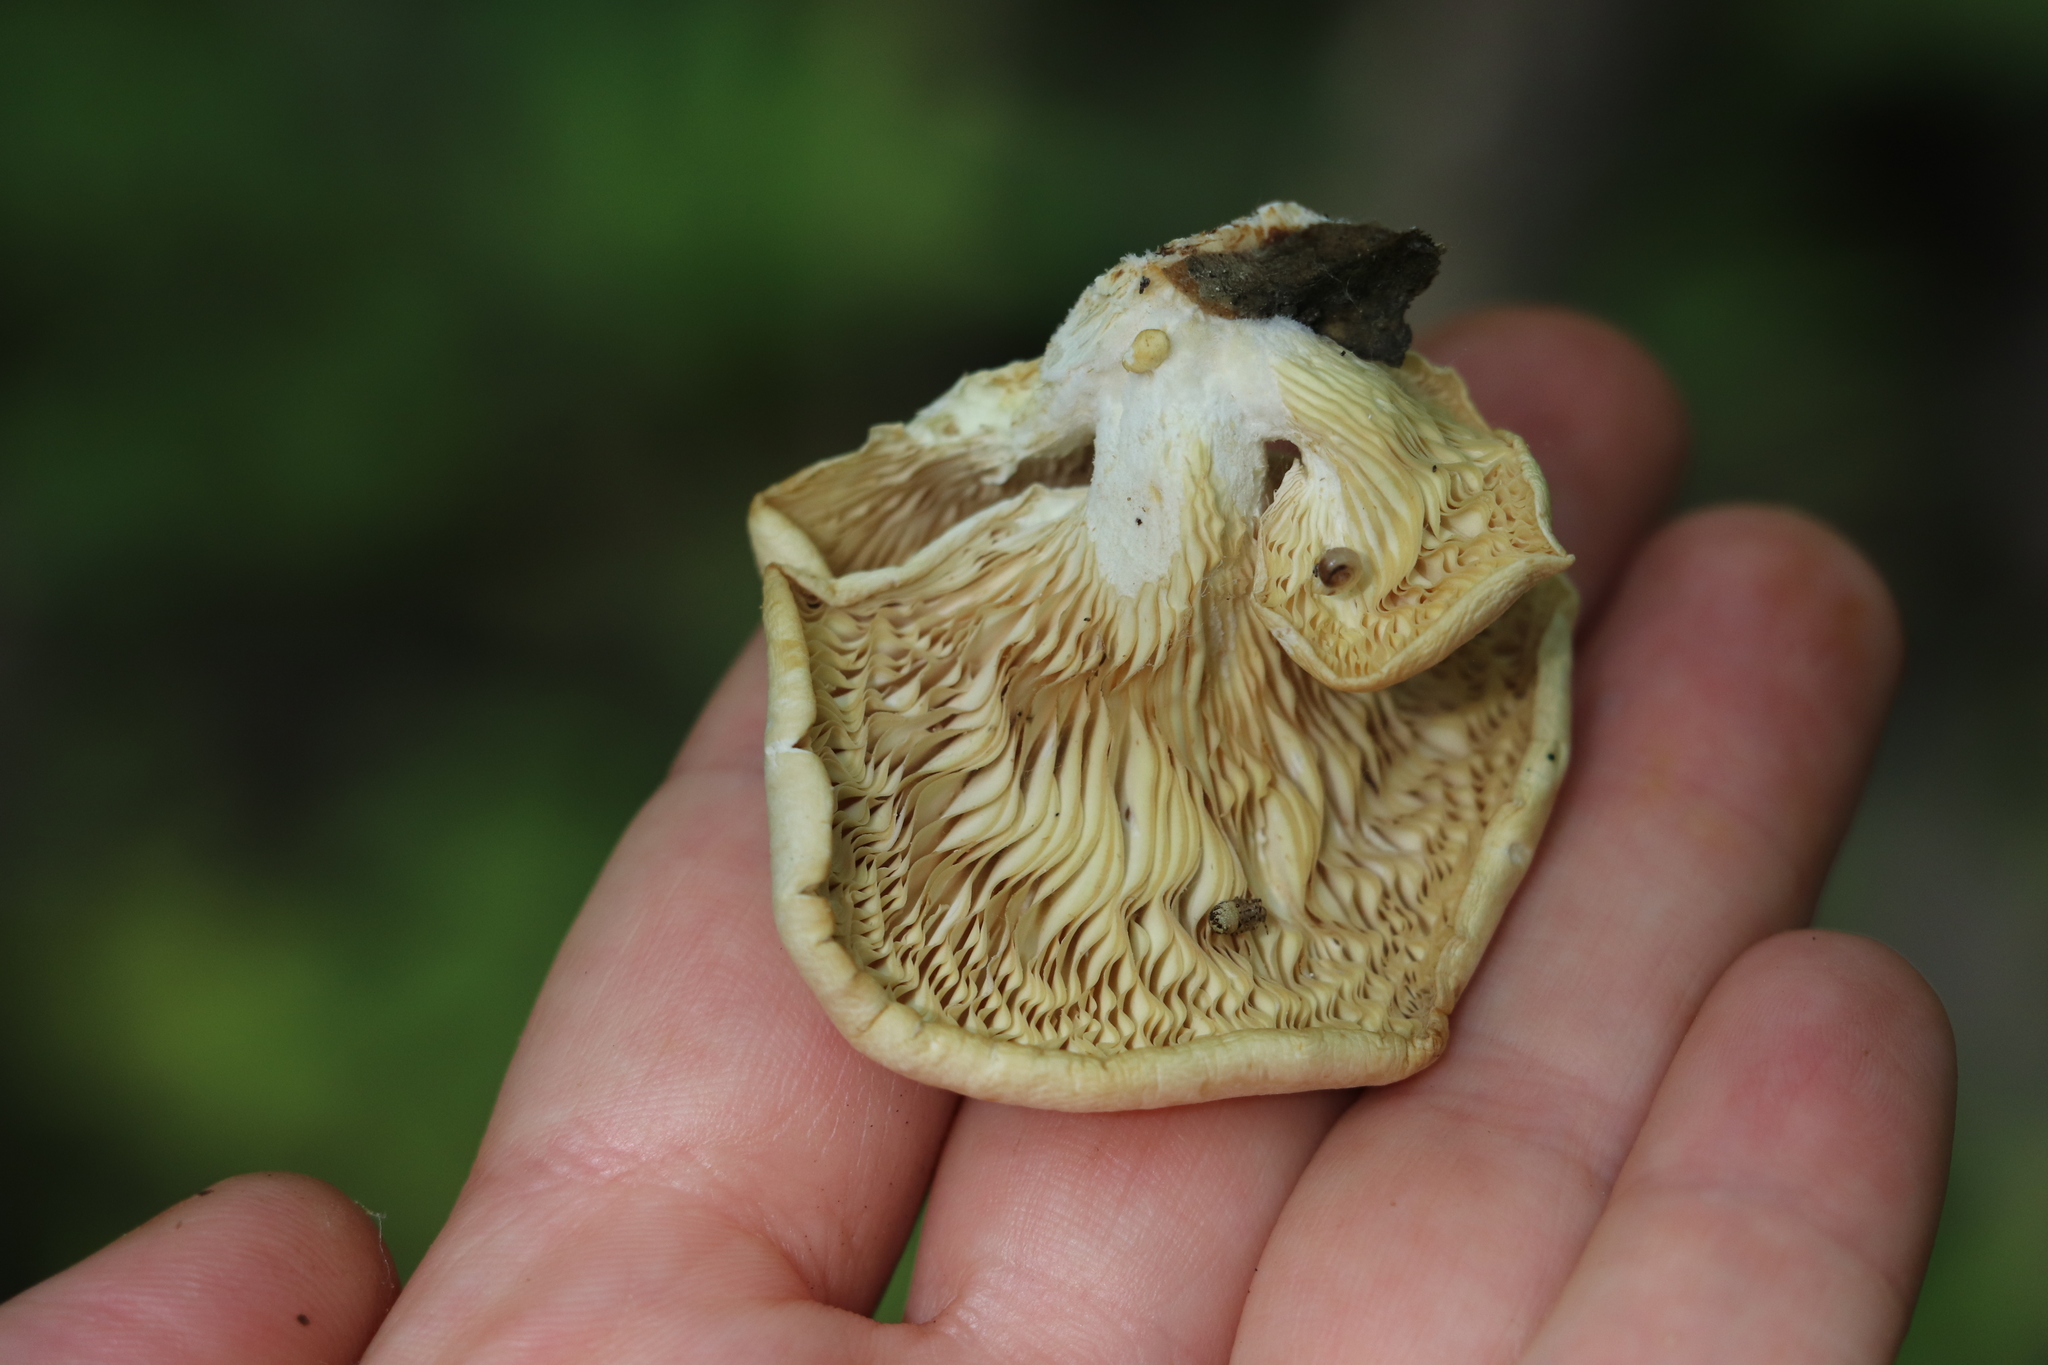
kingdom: Fungi
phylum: Basidiomycota
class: Agaricomycetes
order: Agaricales
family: Pleurotaceae
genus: Pleurotus
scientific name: Pleurotus pulmonarius
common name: Pale oyster
